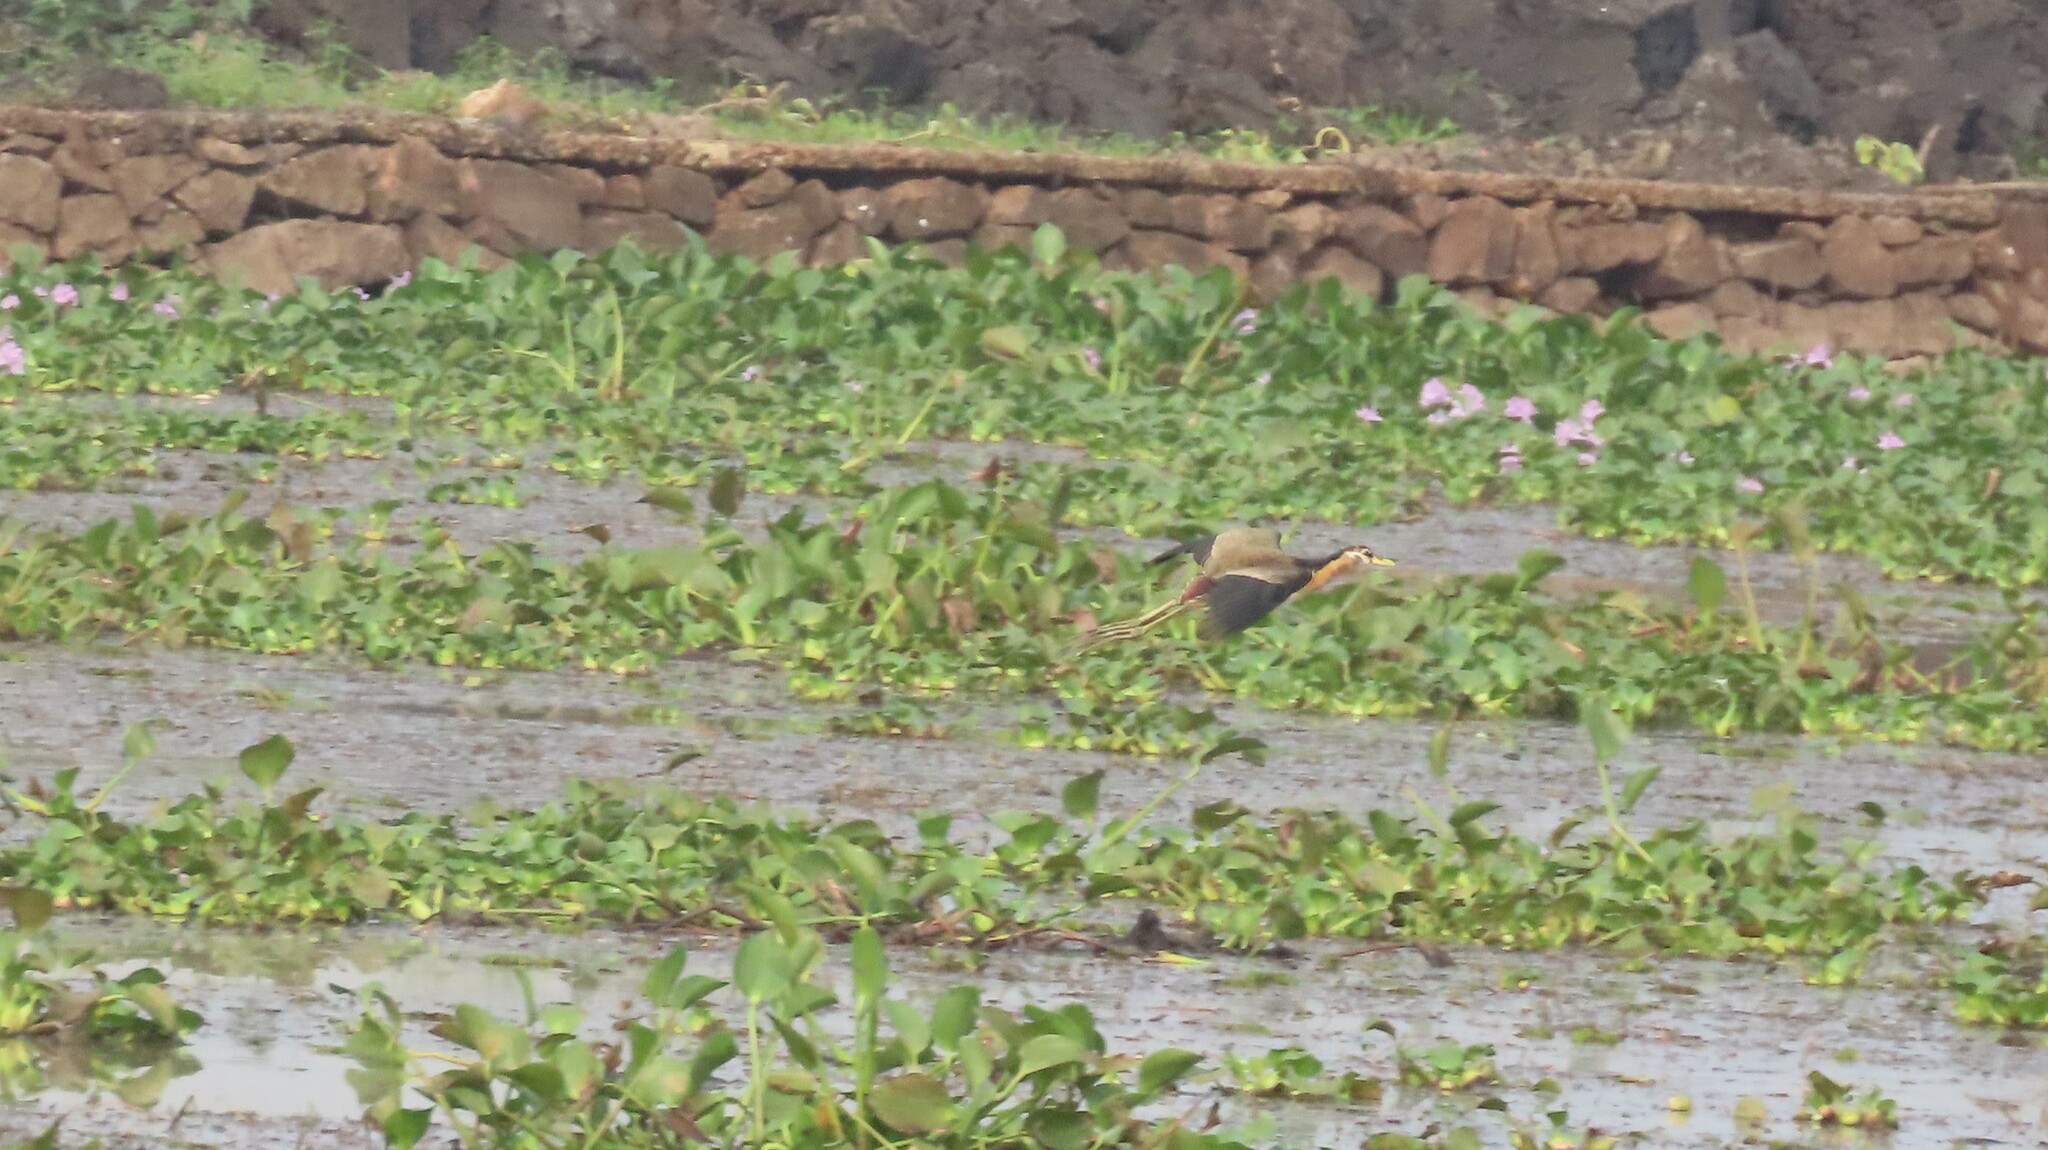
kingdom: Animalia
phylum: Chordata
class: Aves
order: Charadriiformes
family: Jacanidae
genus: Metopidius
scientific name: Metopidius indicus
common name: Bronze-winged jacana
